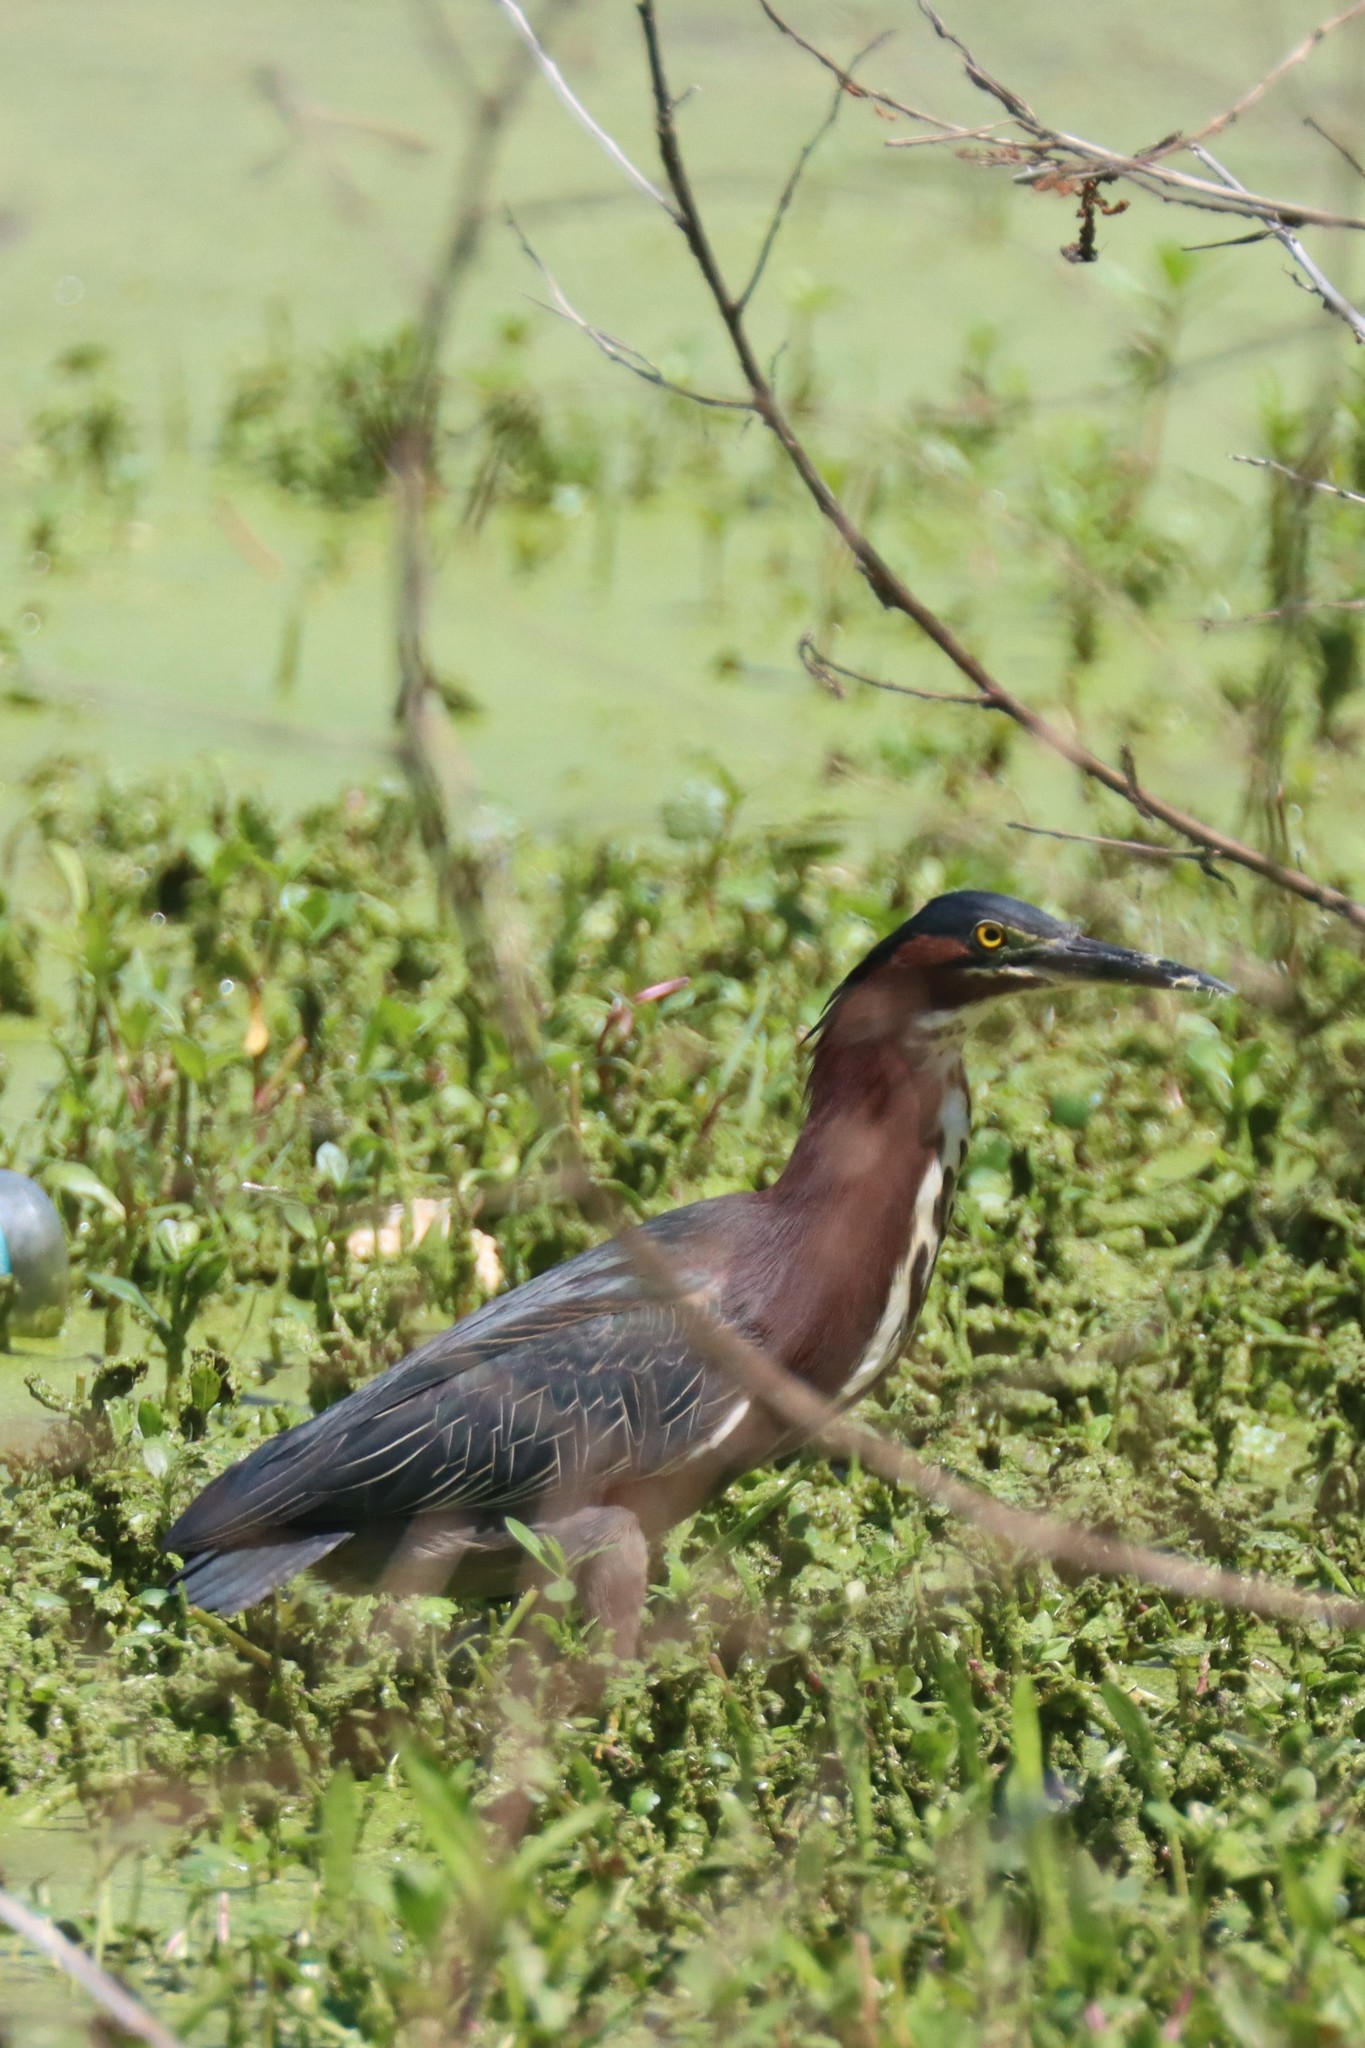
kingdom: Animalia
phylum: Chordata
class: Aves
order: Pelecaniformes
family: Ardeidae
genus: Butorides
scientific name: Butorides virescens
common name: Green heron
